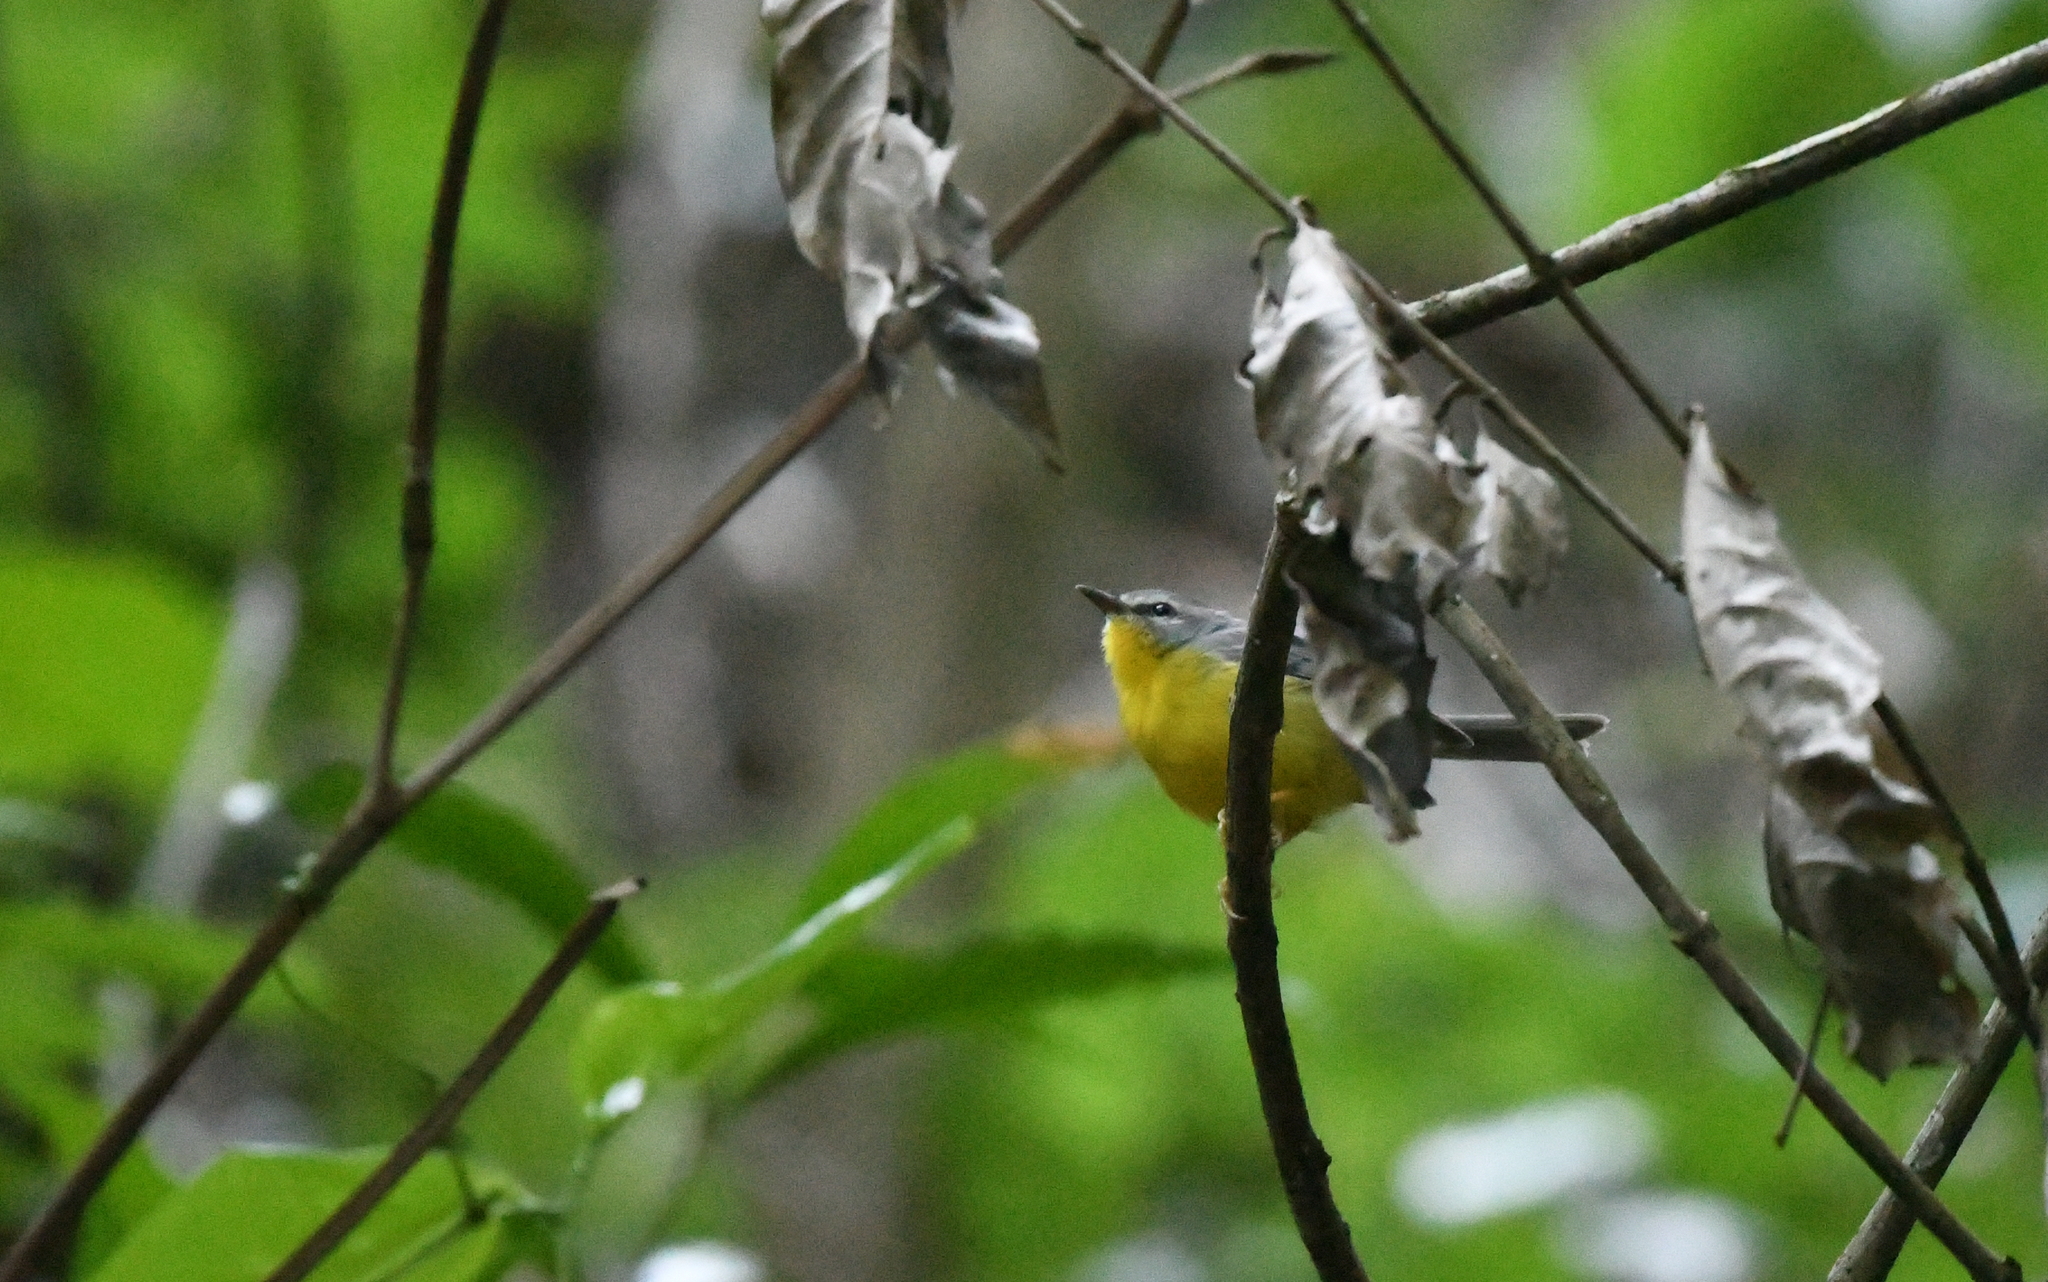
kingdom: Animalia
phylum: Chordata
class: Aves
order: Passeriformes
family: Parulidae
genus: Basileuterus
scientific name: Basileuterus culicivorus
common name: Golden-crowned warbler
